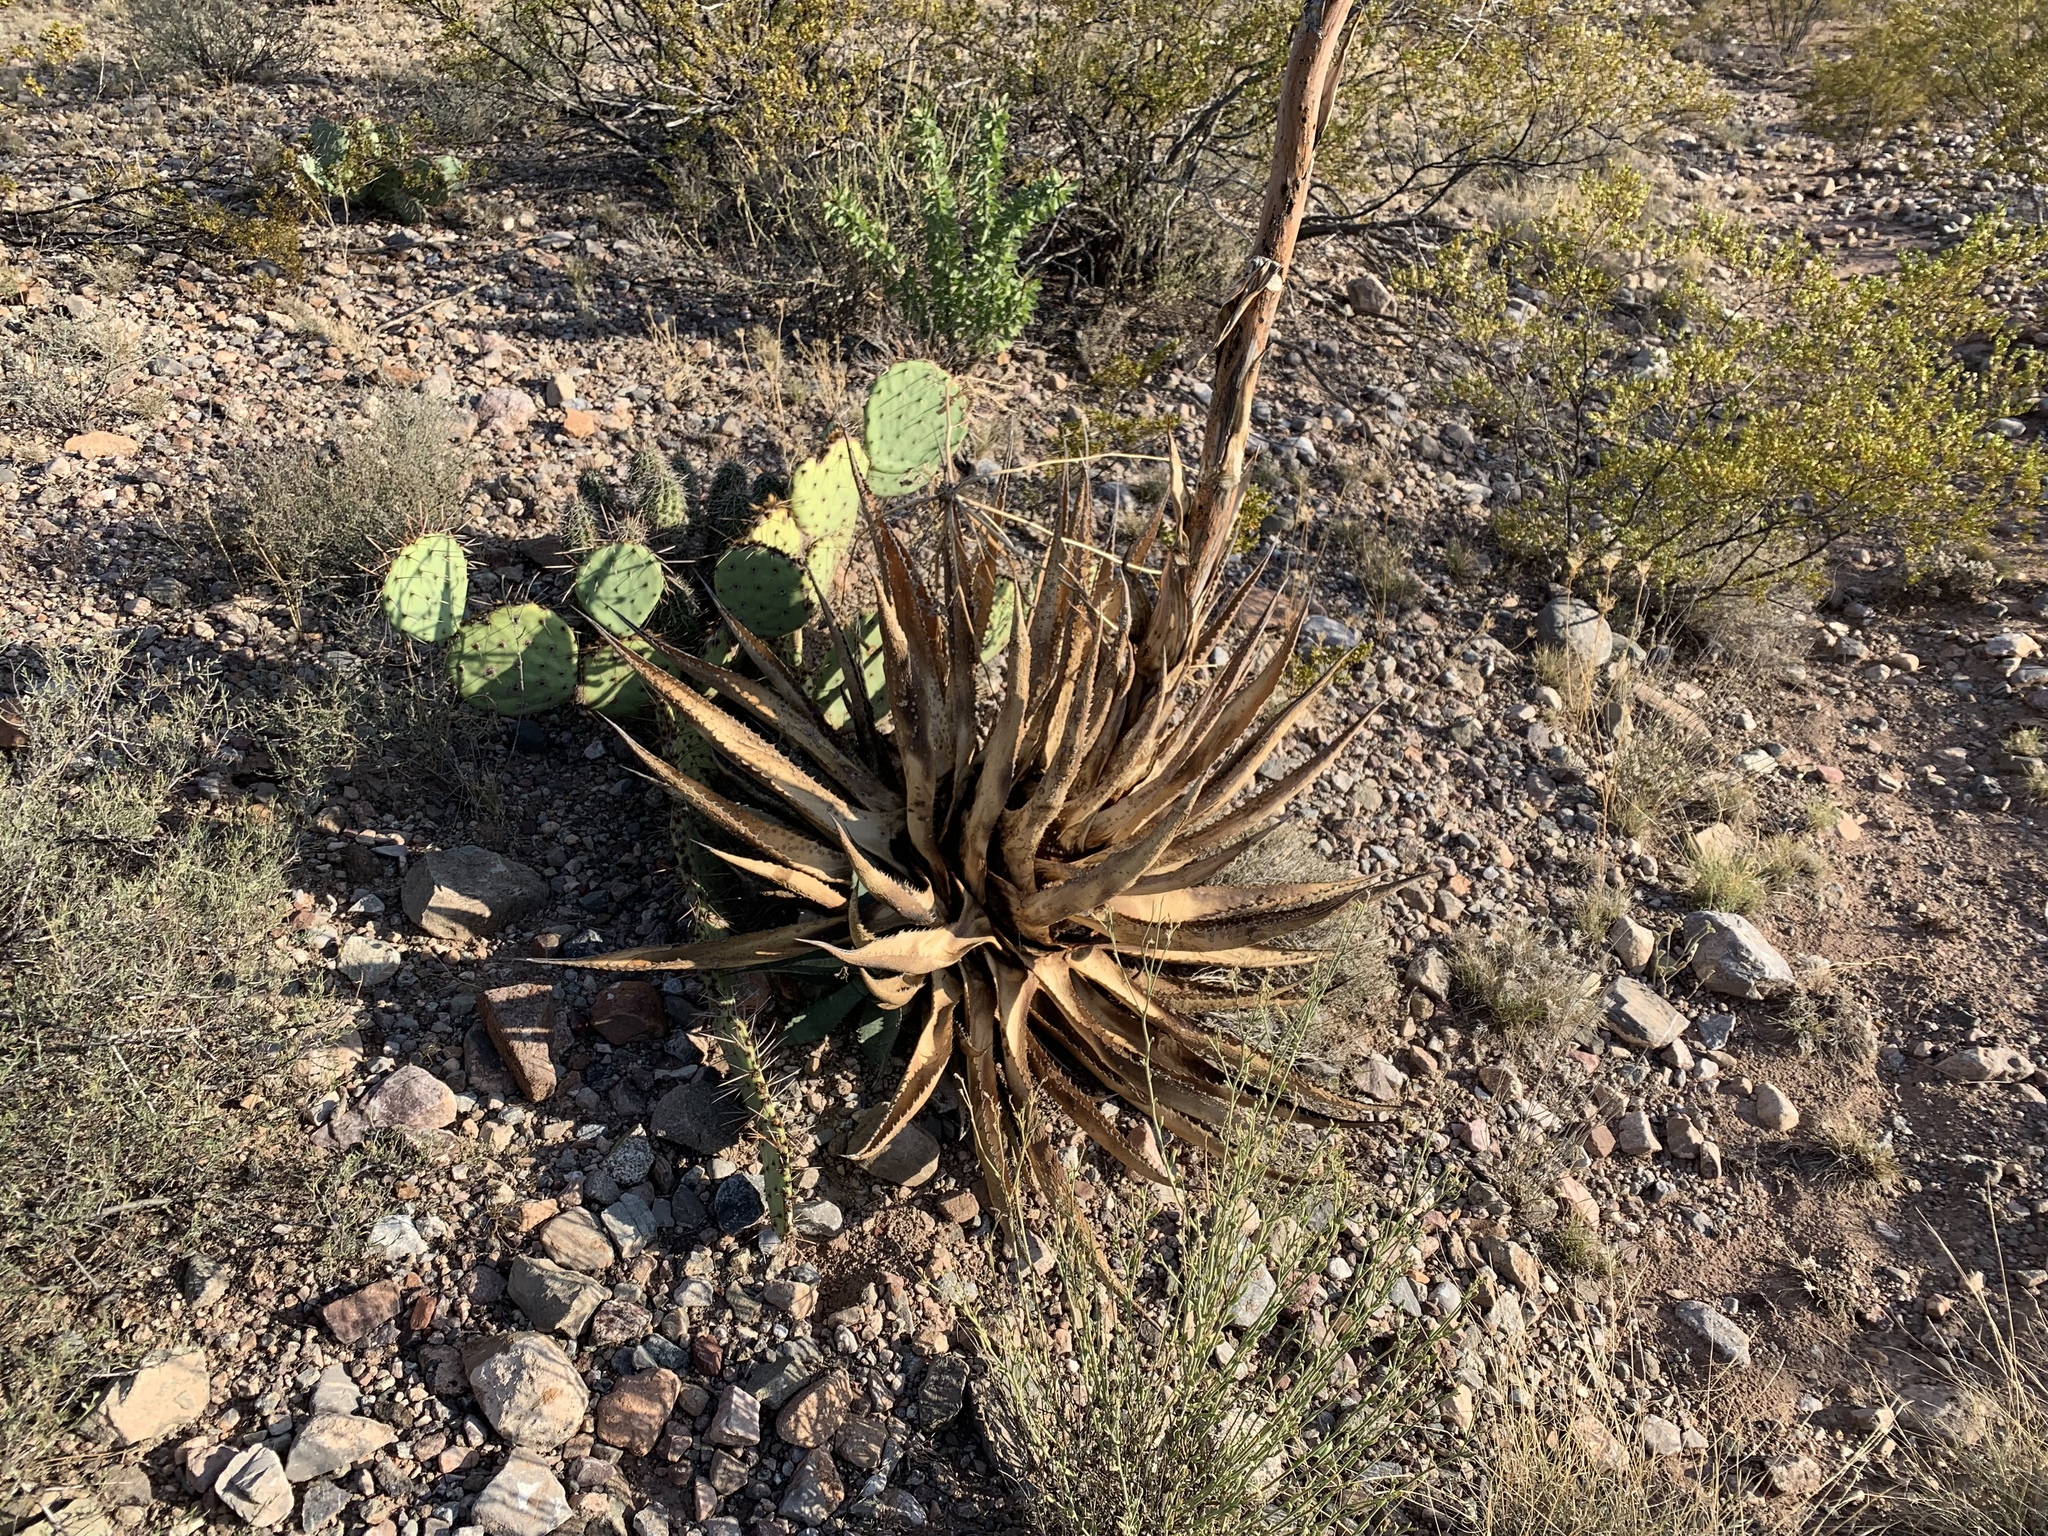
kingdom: Plantae
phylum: Tracheophyta
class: Liliopsida
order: Asparagales
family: Asparagaceae
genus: Agave
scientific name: Agave palmeri
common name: Palmer agave
